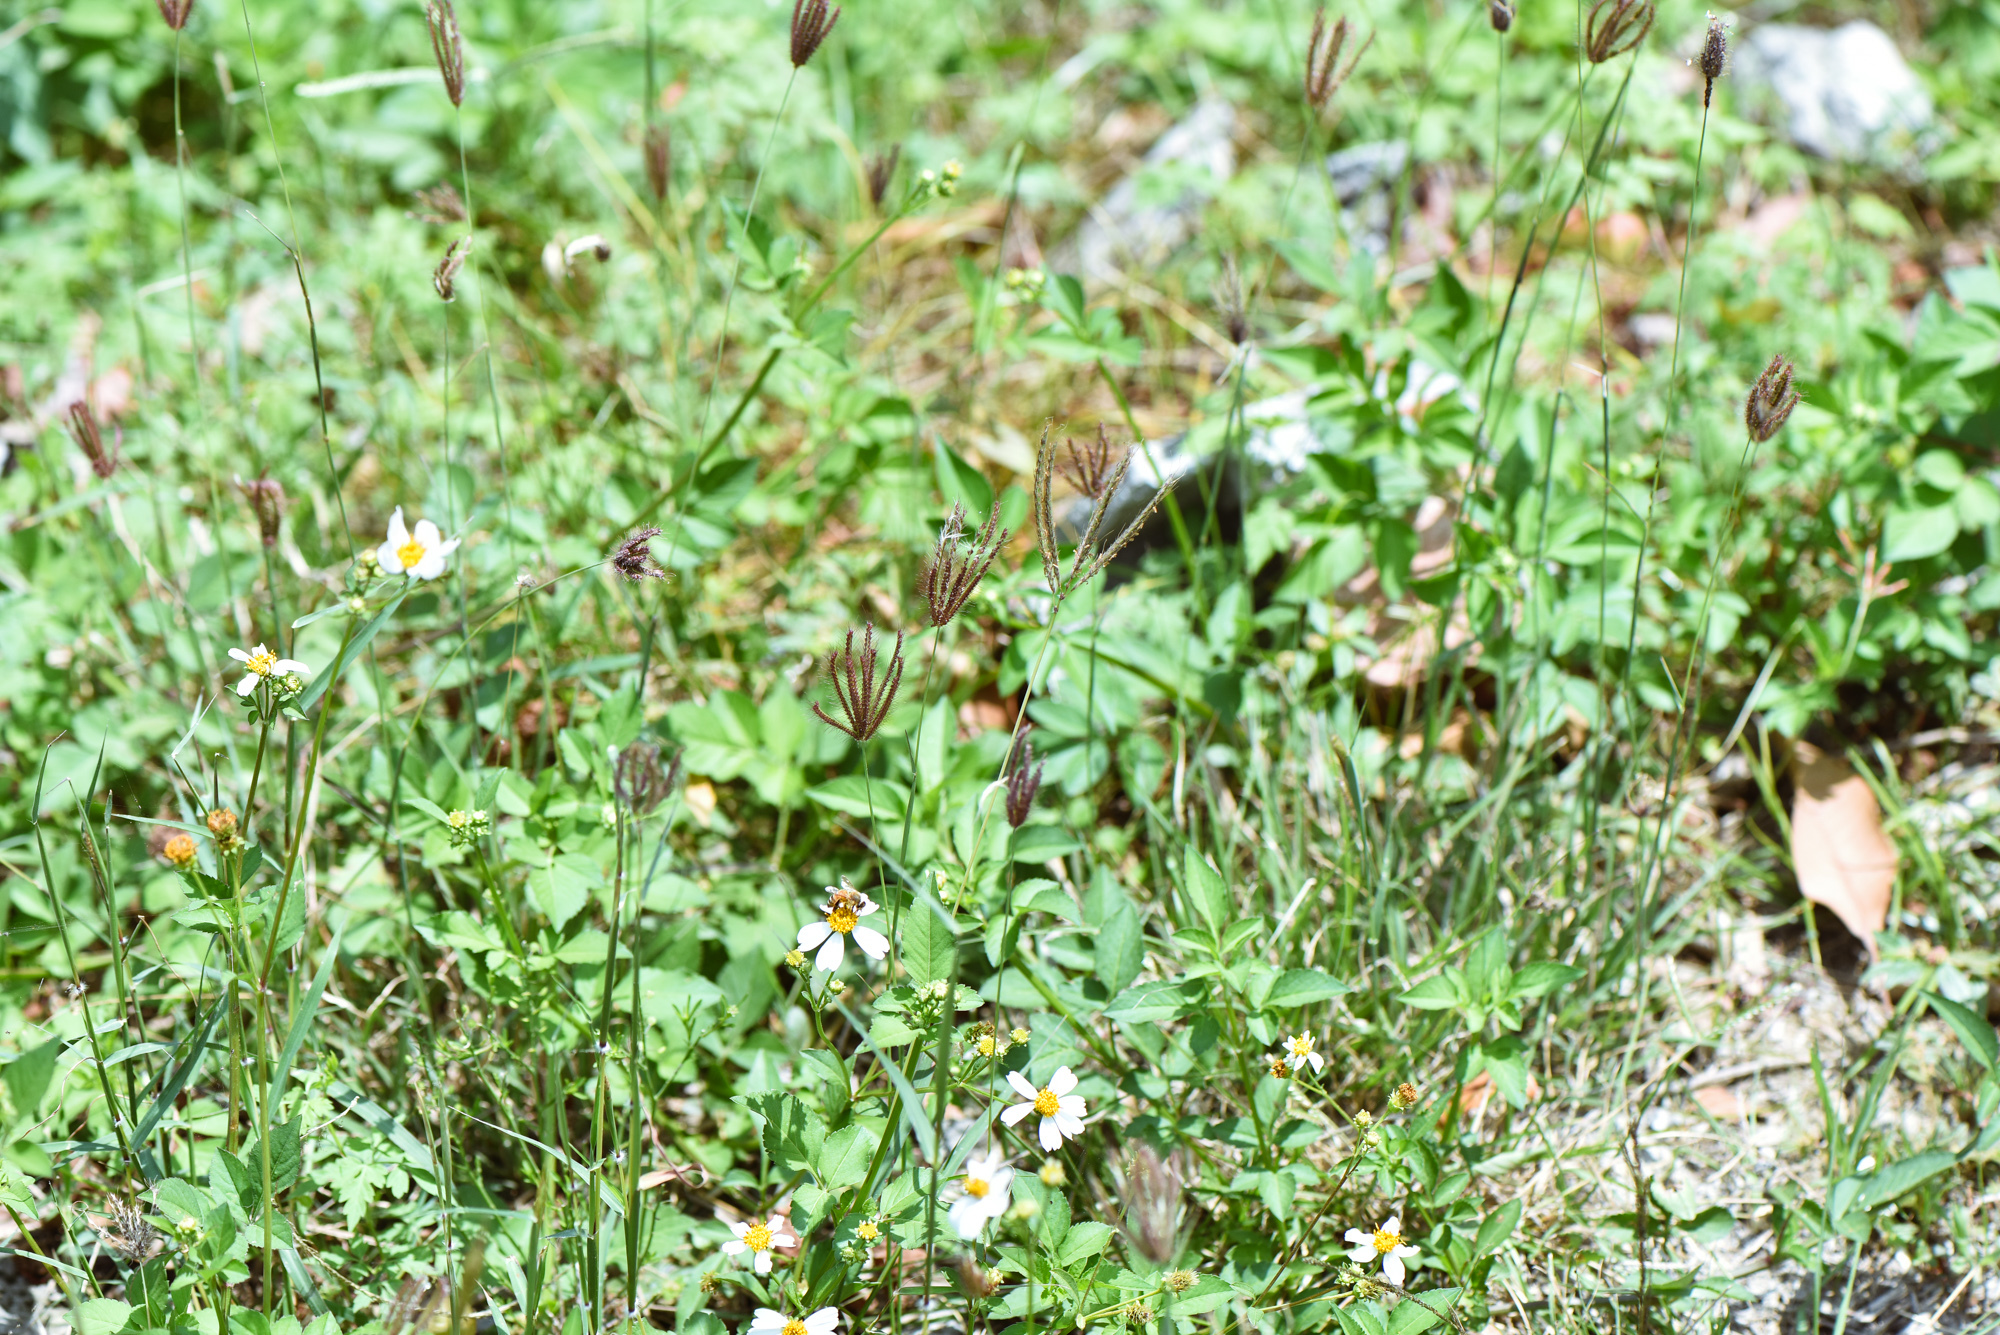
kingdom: Plantae
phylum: Tracheophyta
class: Liliopsida
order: Poales
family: Poaceae
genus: Chloris
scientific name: Chloris barbata
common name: Swollen fingergrass
